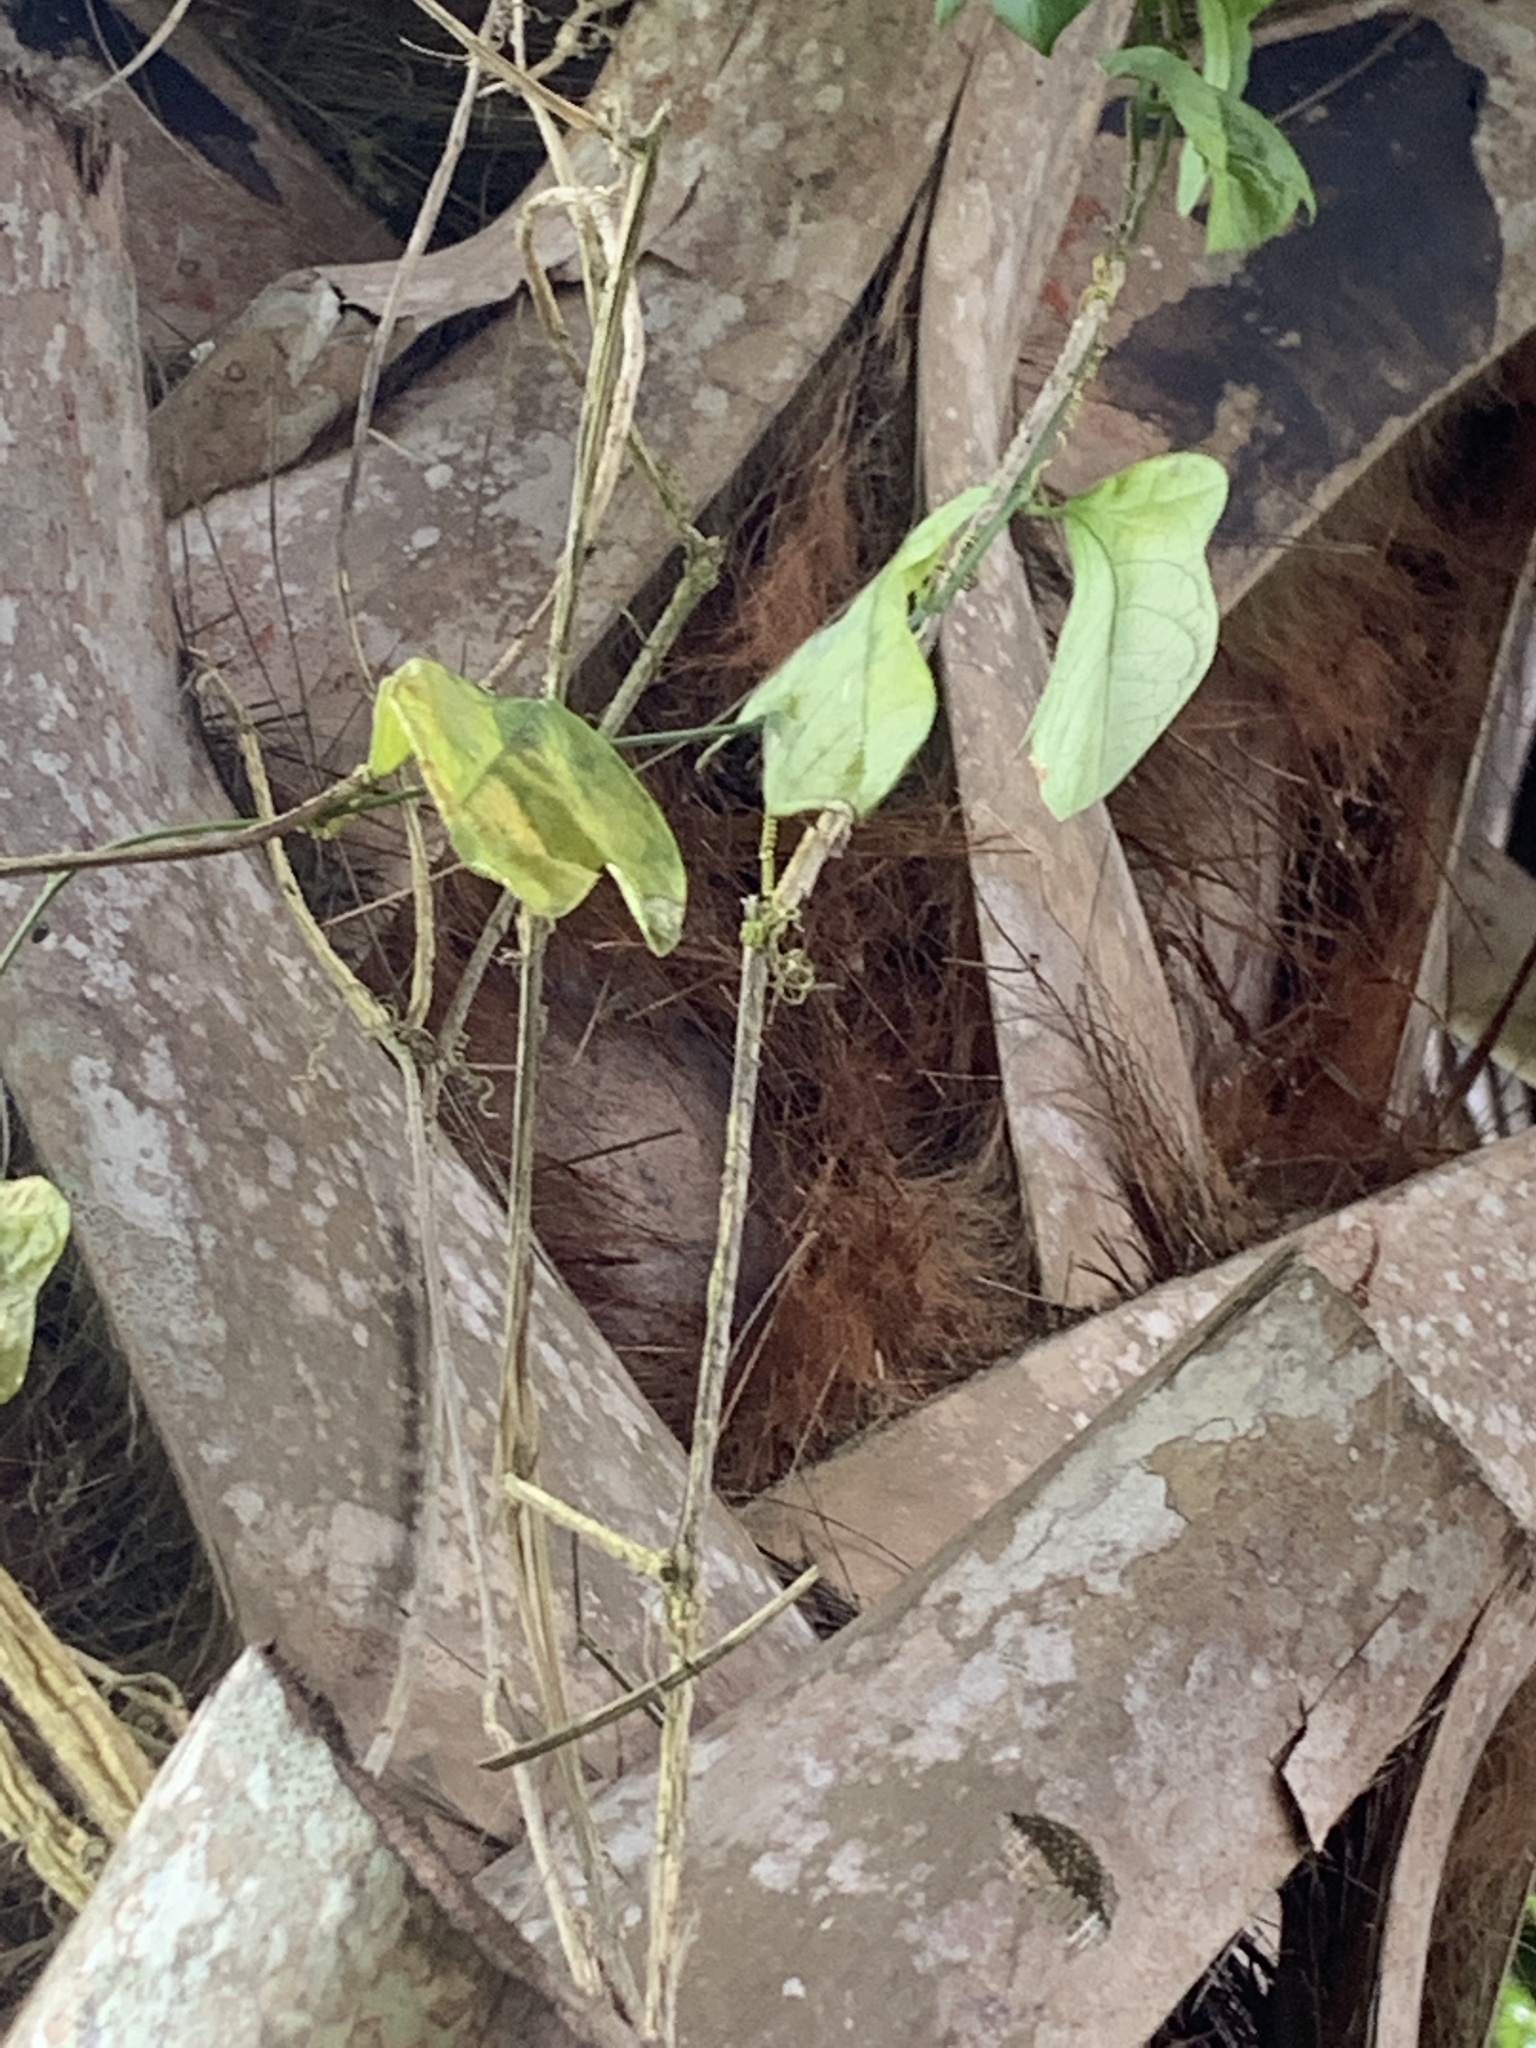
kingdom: Plantae
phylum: Tracheophyta
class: Magnoliopsida
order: Malpighiales
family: Passifloraceae
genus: Passiflora
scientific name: Passiflora pallida
